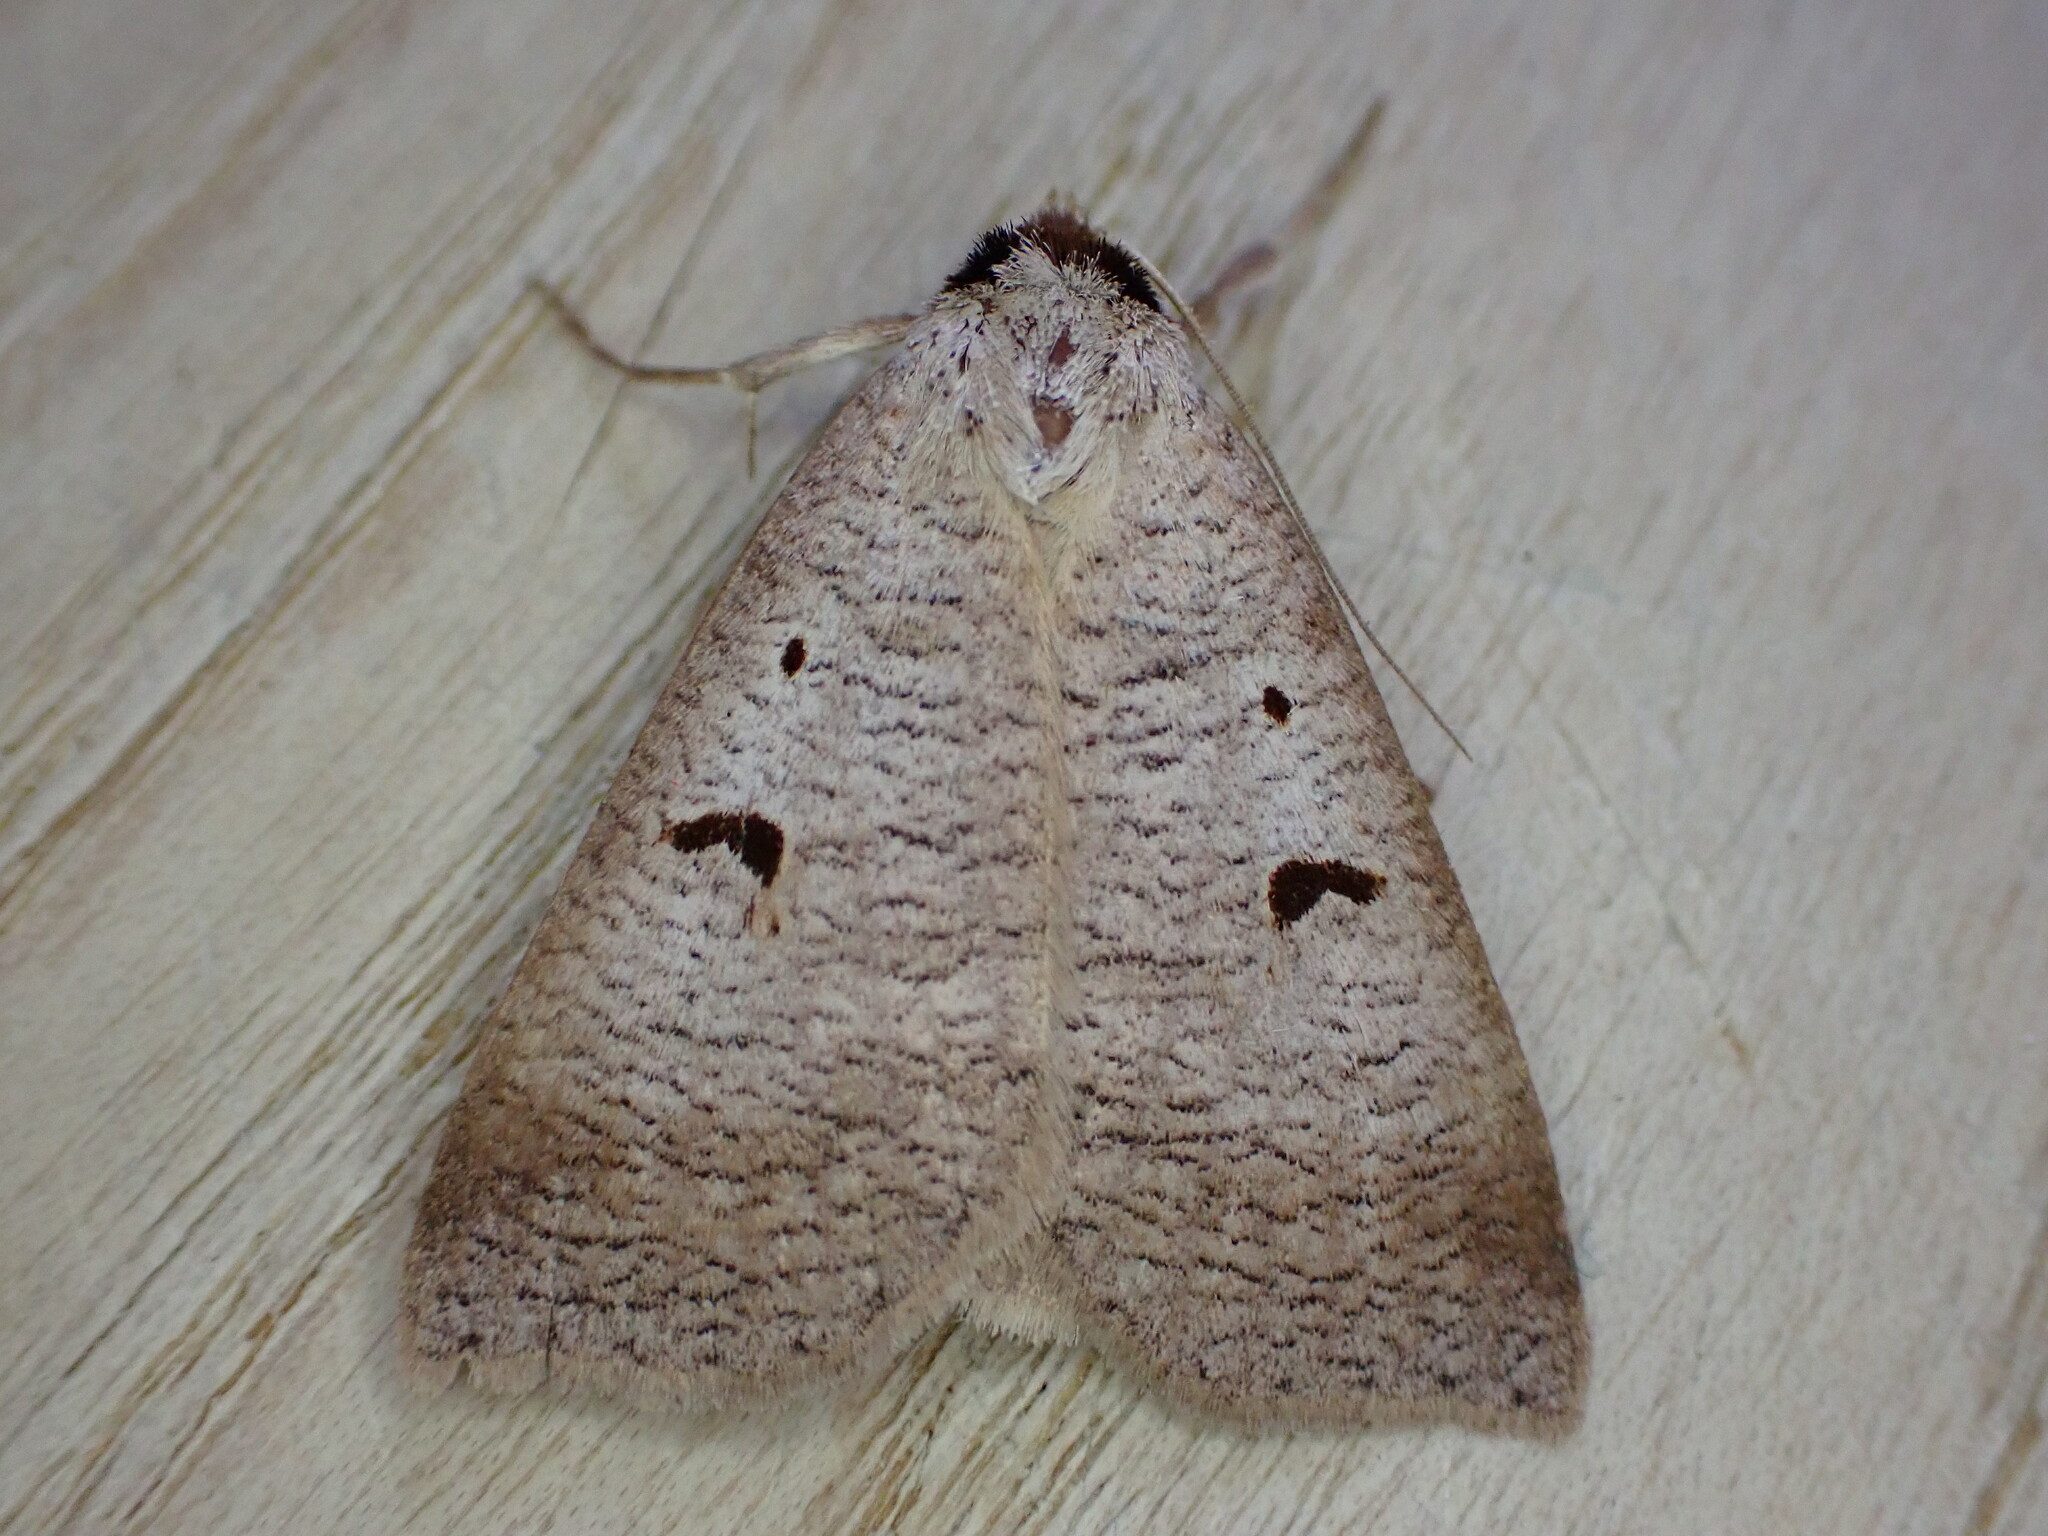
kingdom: Animalia
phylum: Arthropoda
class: Insecta
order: Lepidoptera
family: Erebidae
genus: Lygephila
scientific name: Lygephila pastinum
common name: Blackneck
